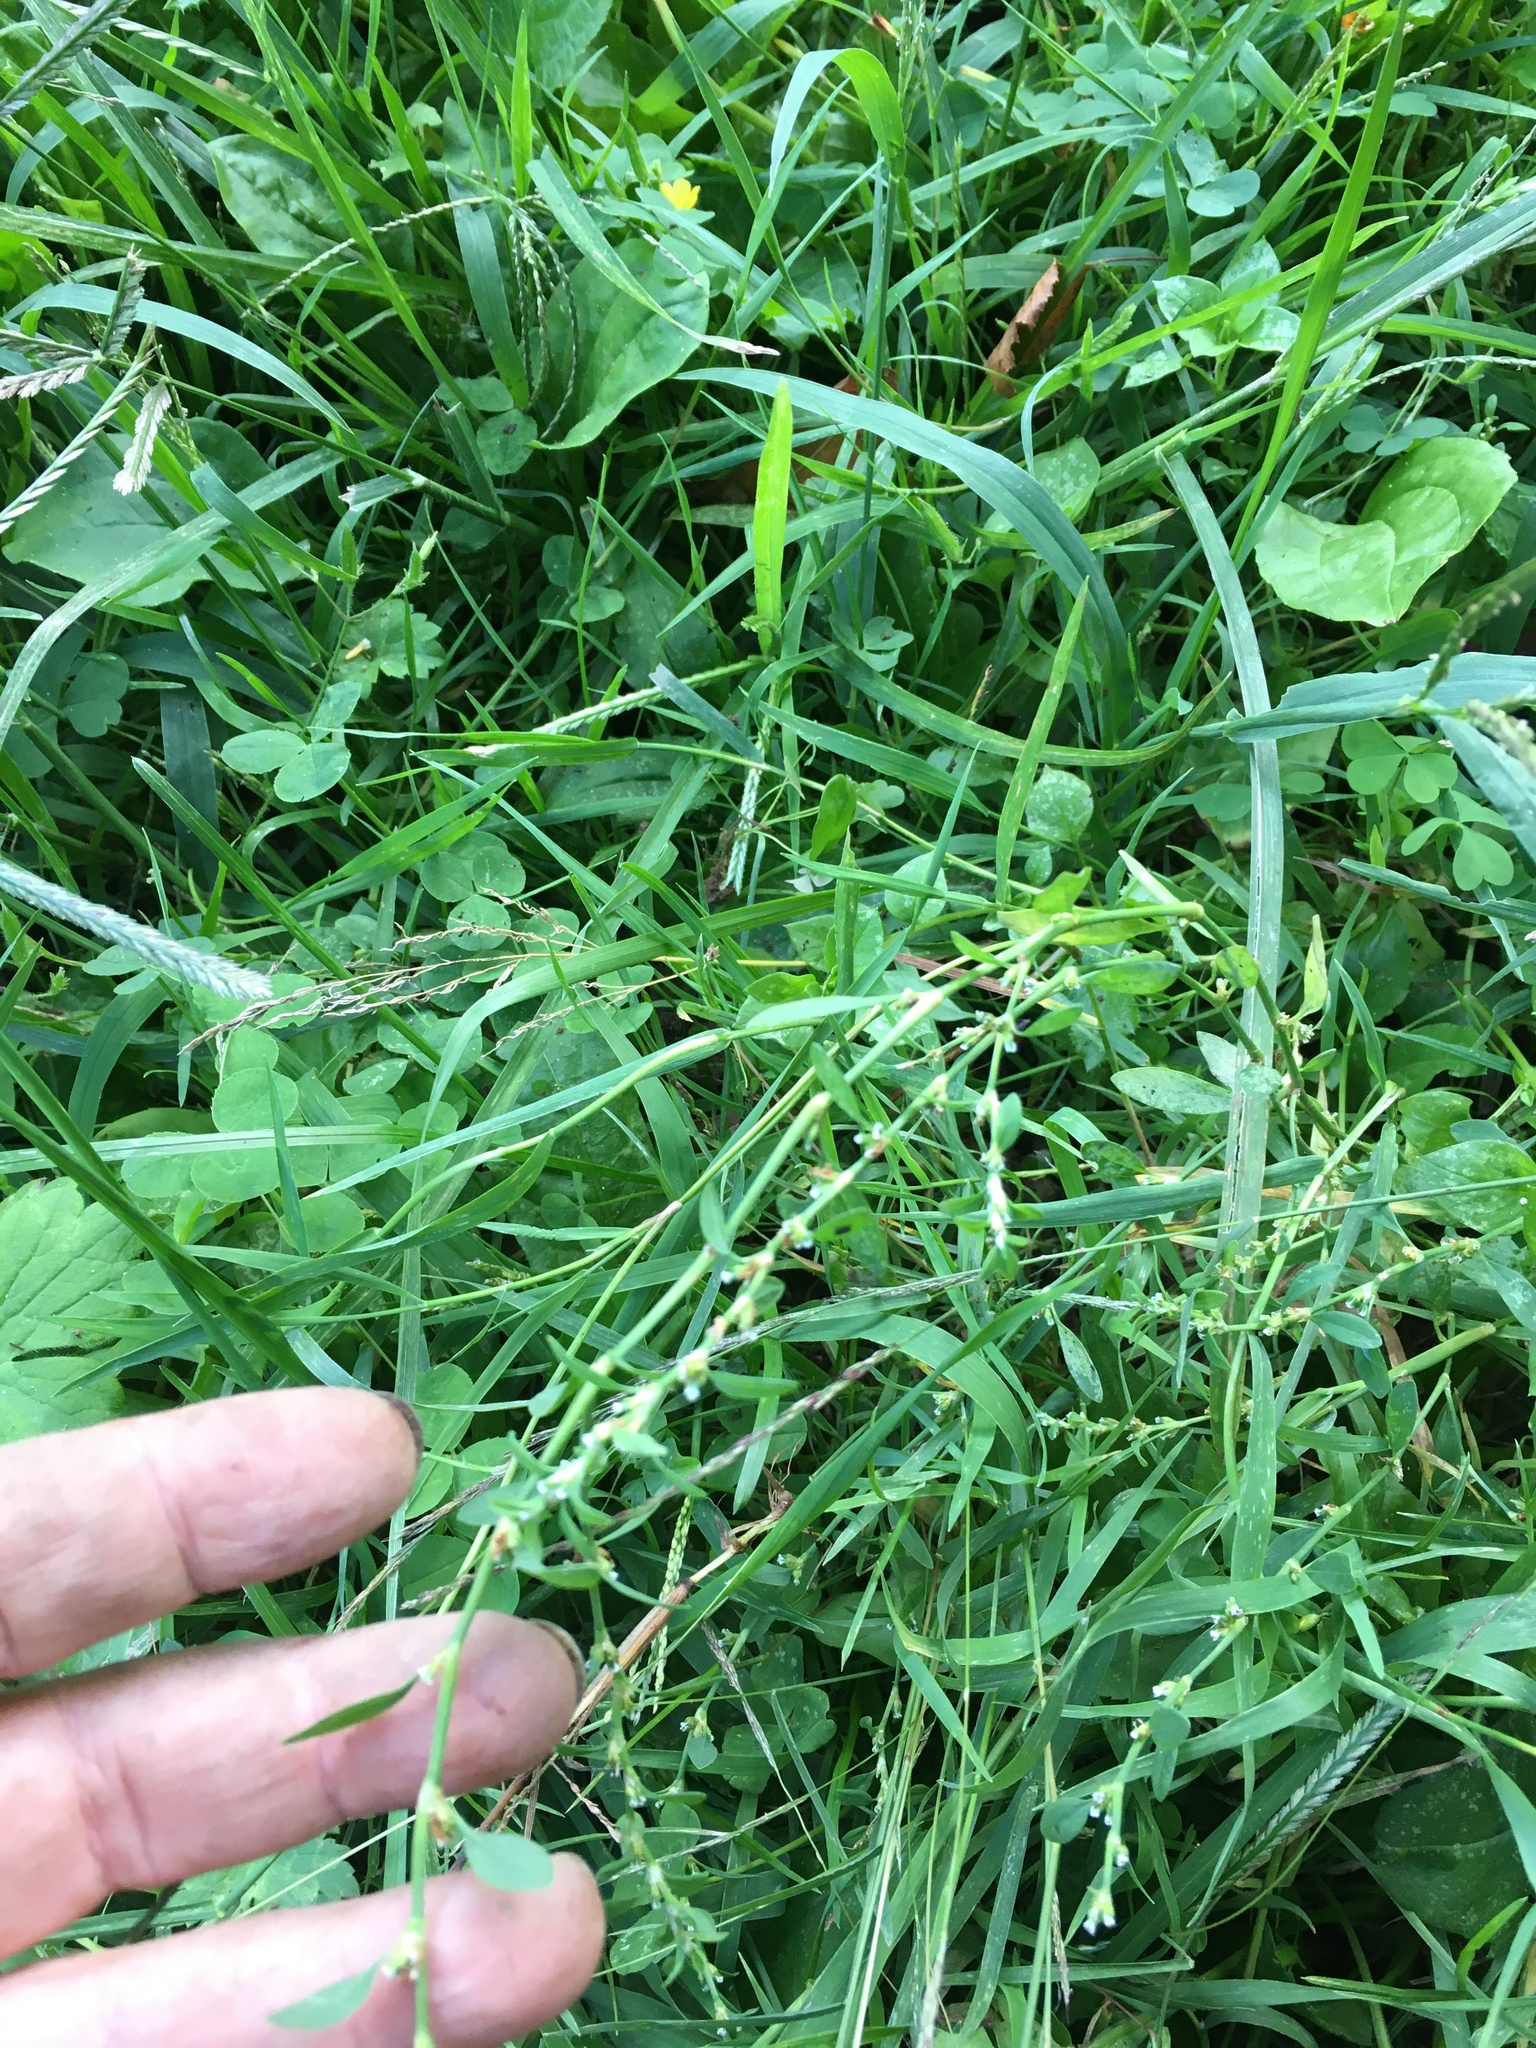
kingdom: Plantae
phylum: Tracheophyta
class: Magnoliopsida
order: Caryophyllales
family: Polygonaceae
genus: Polygonum
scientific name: Polygonum aviculare
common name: Prostrate knotweed
